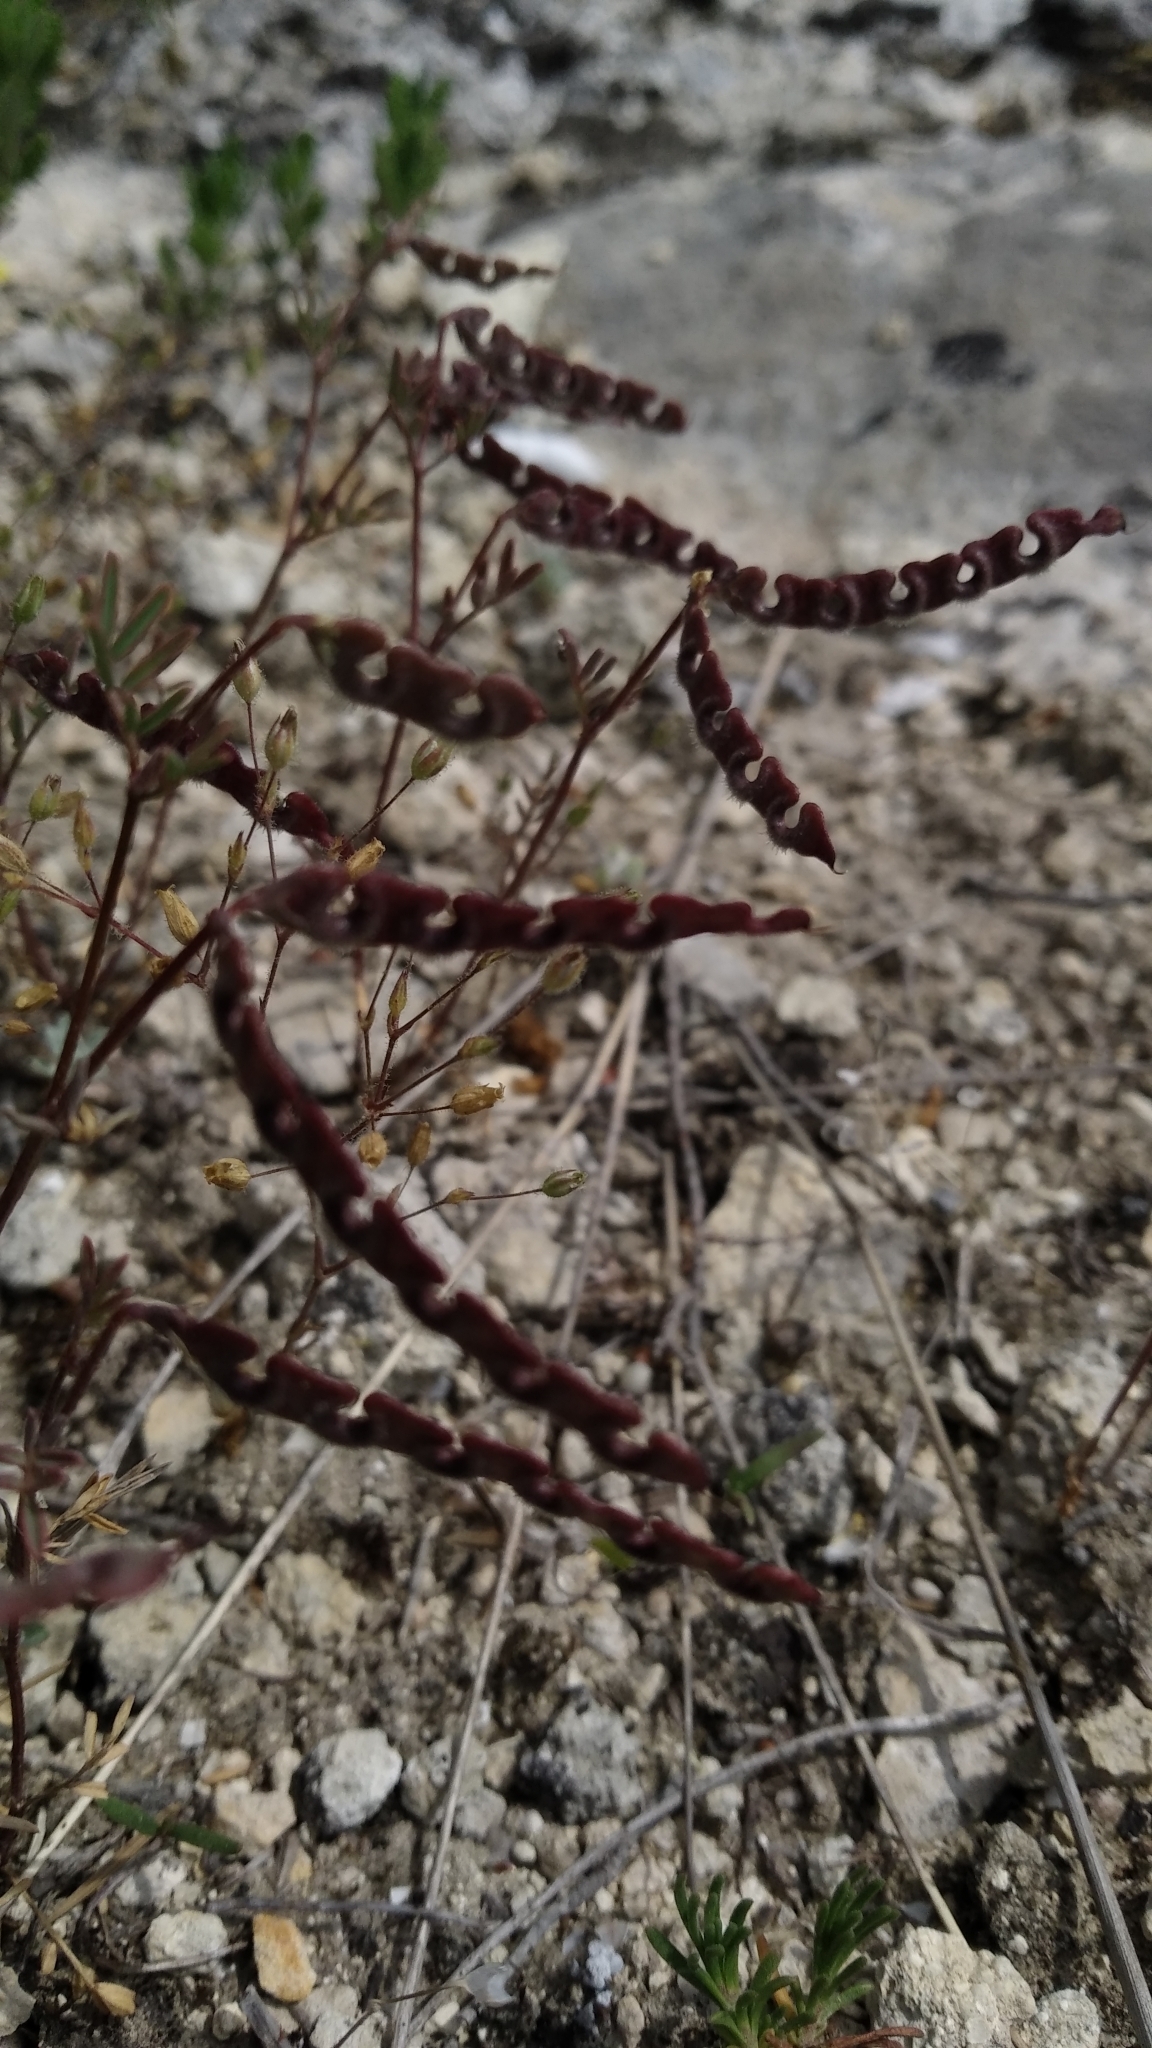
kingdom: Plantae
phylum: Tracheophyta
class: Magnoliopsida
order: Fabales
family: Fabaceae
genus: Hippocrepis
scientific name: Hippocrepis ciliata
